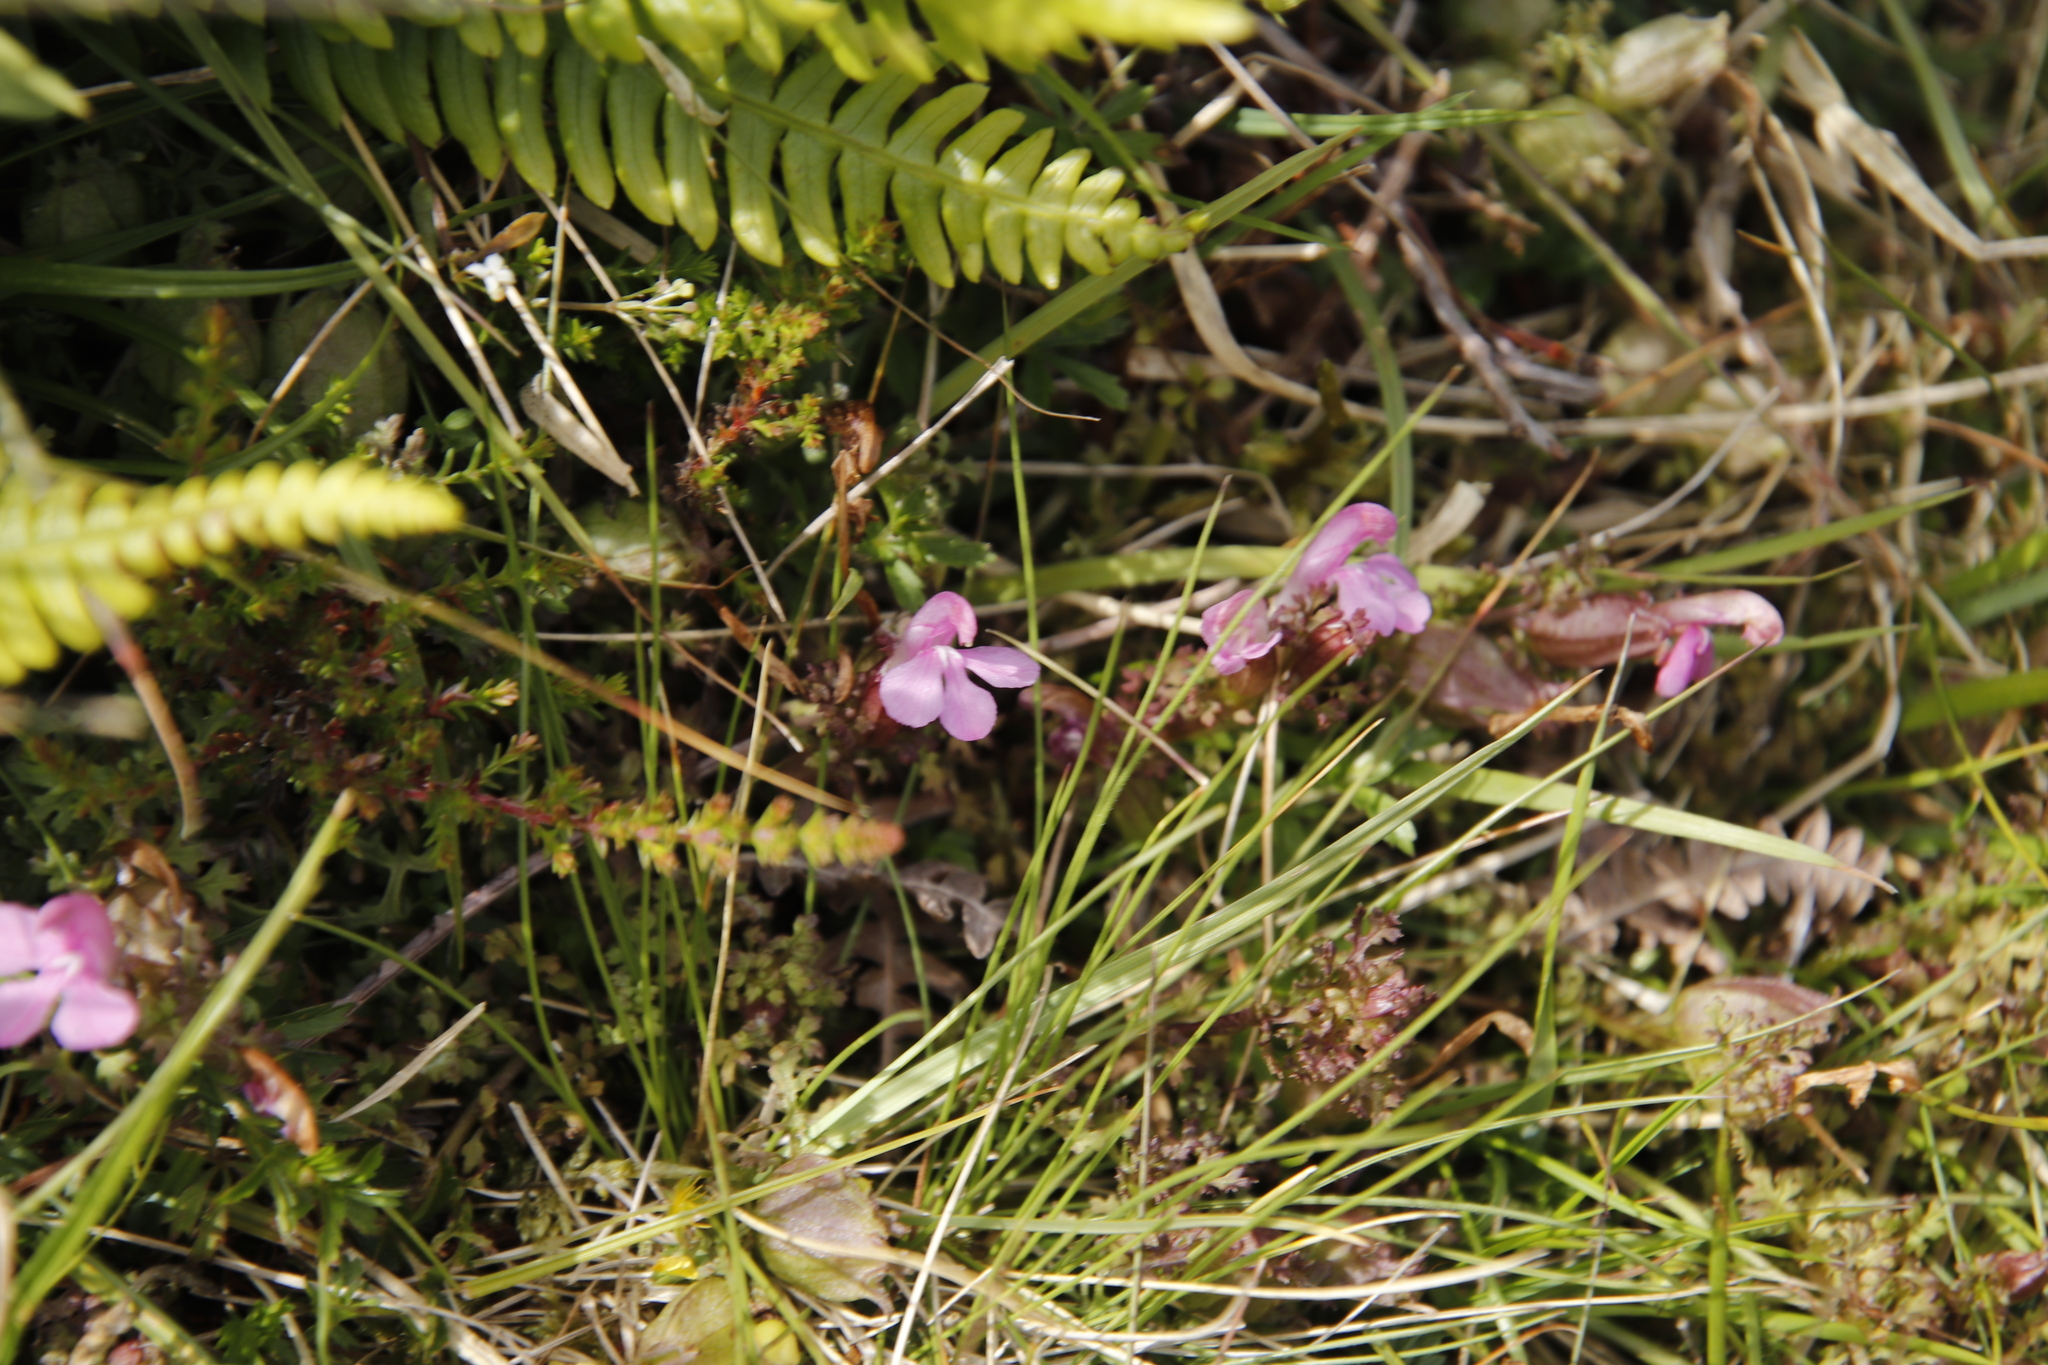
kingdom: Plantae
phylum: Tracheophyta
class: Magnoliopsida
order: Lamiales
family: Orobanchaceae
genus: Pedicularis
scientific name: Pedicularis sylvatica
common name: Lousewort
